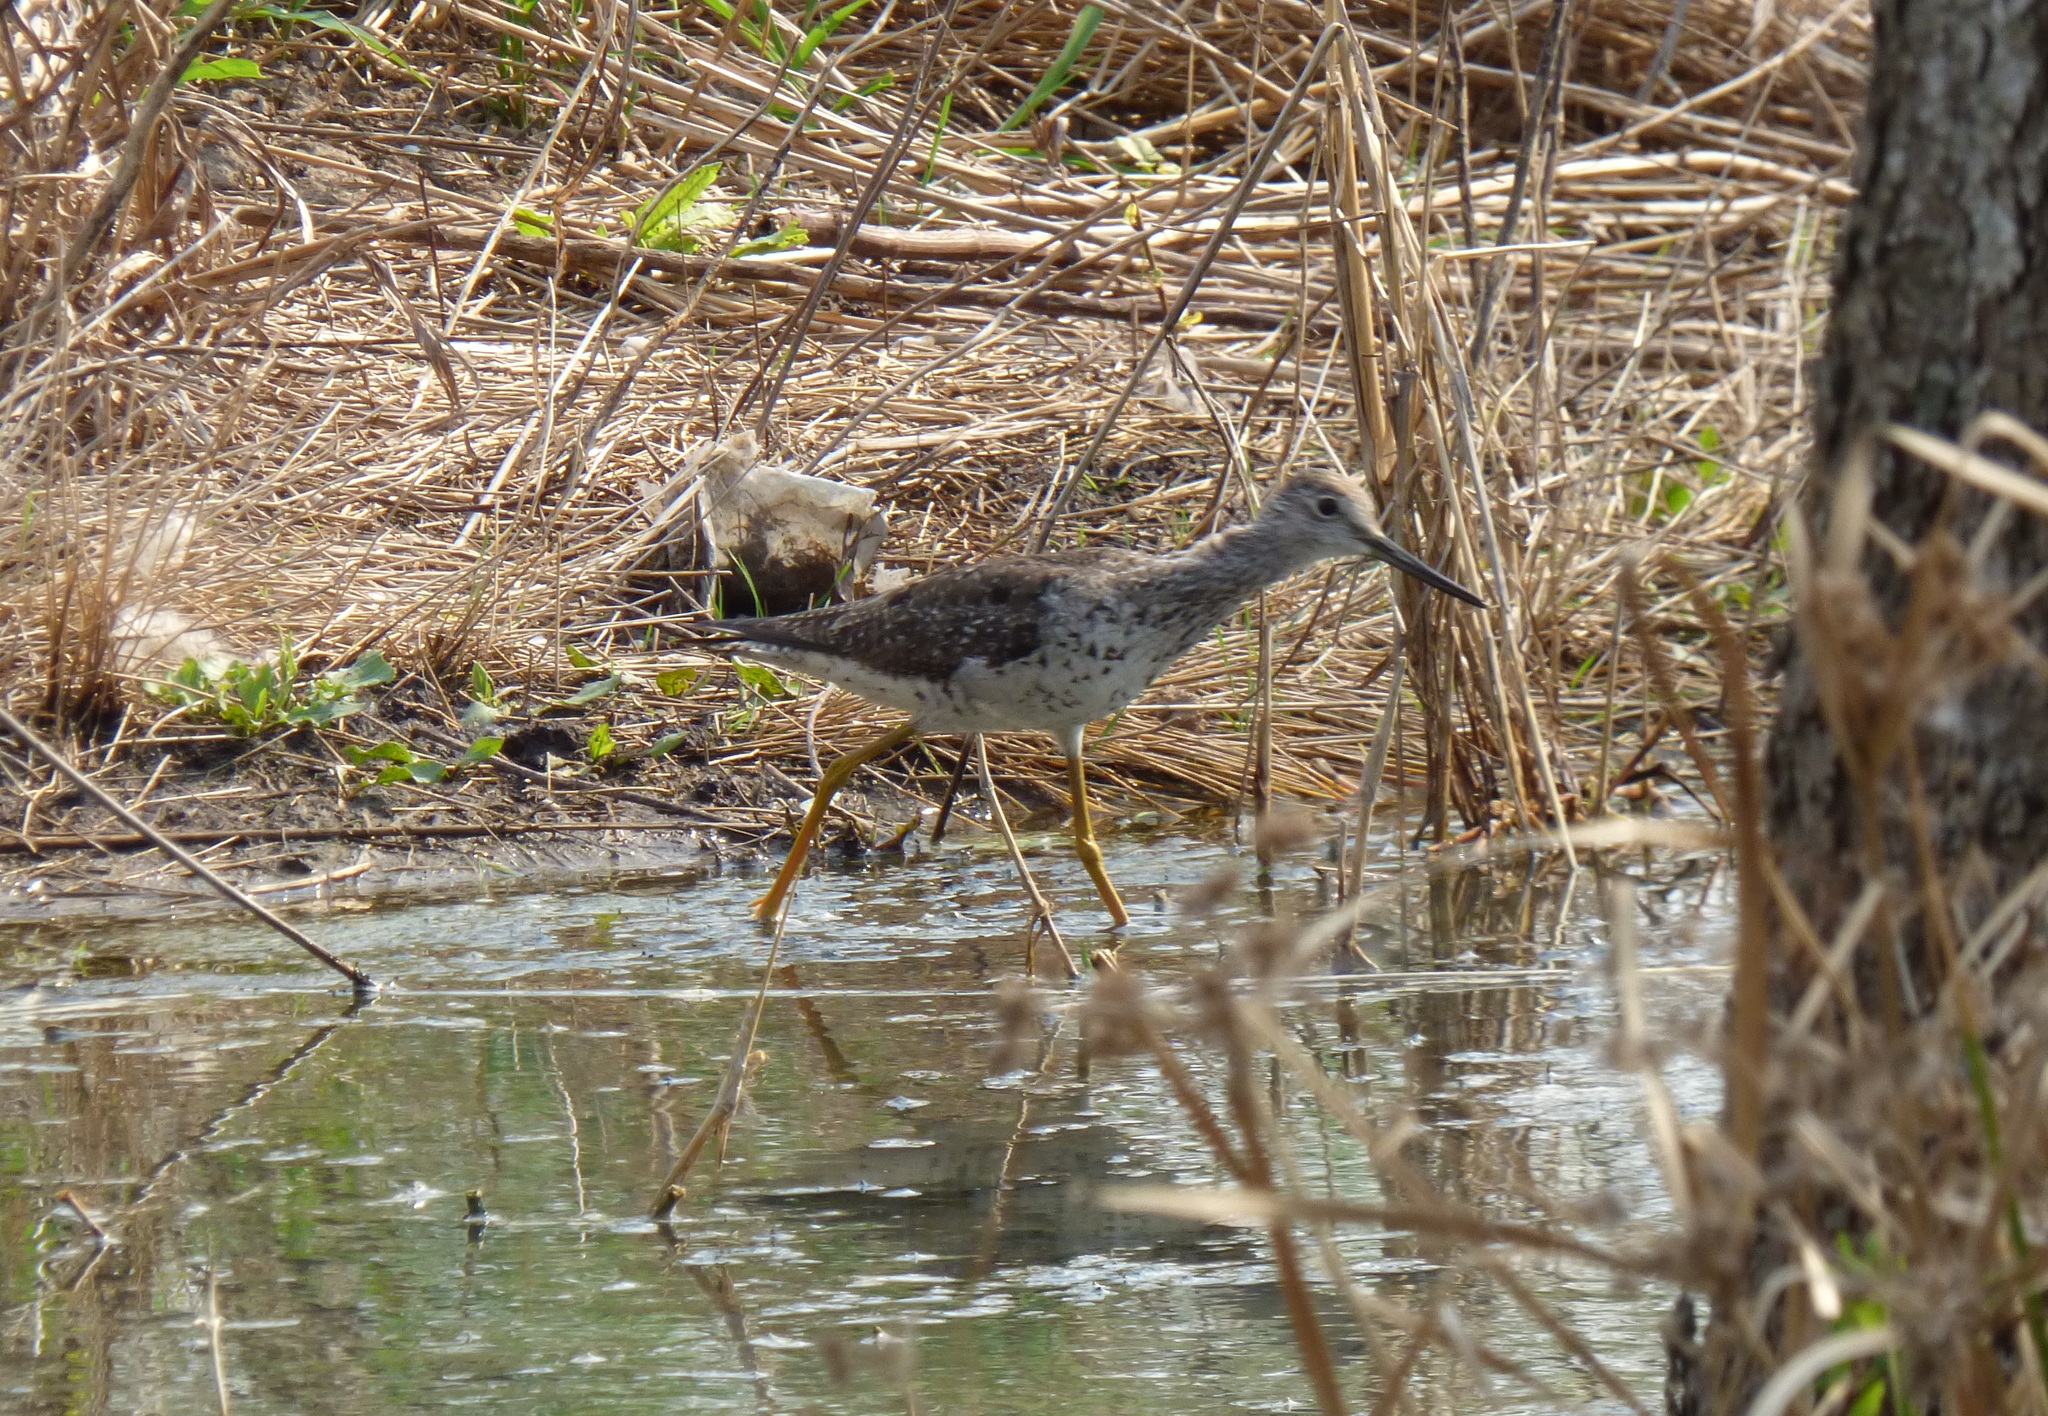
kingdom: Animalia
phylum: Chordata
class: Aves
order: Charadriiformes
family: Scolopacidae
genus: Tringa
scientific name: Tringa melanoleuca
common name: Greater yellowlegs
